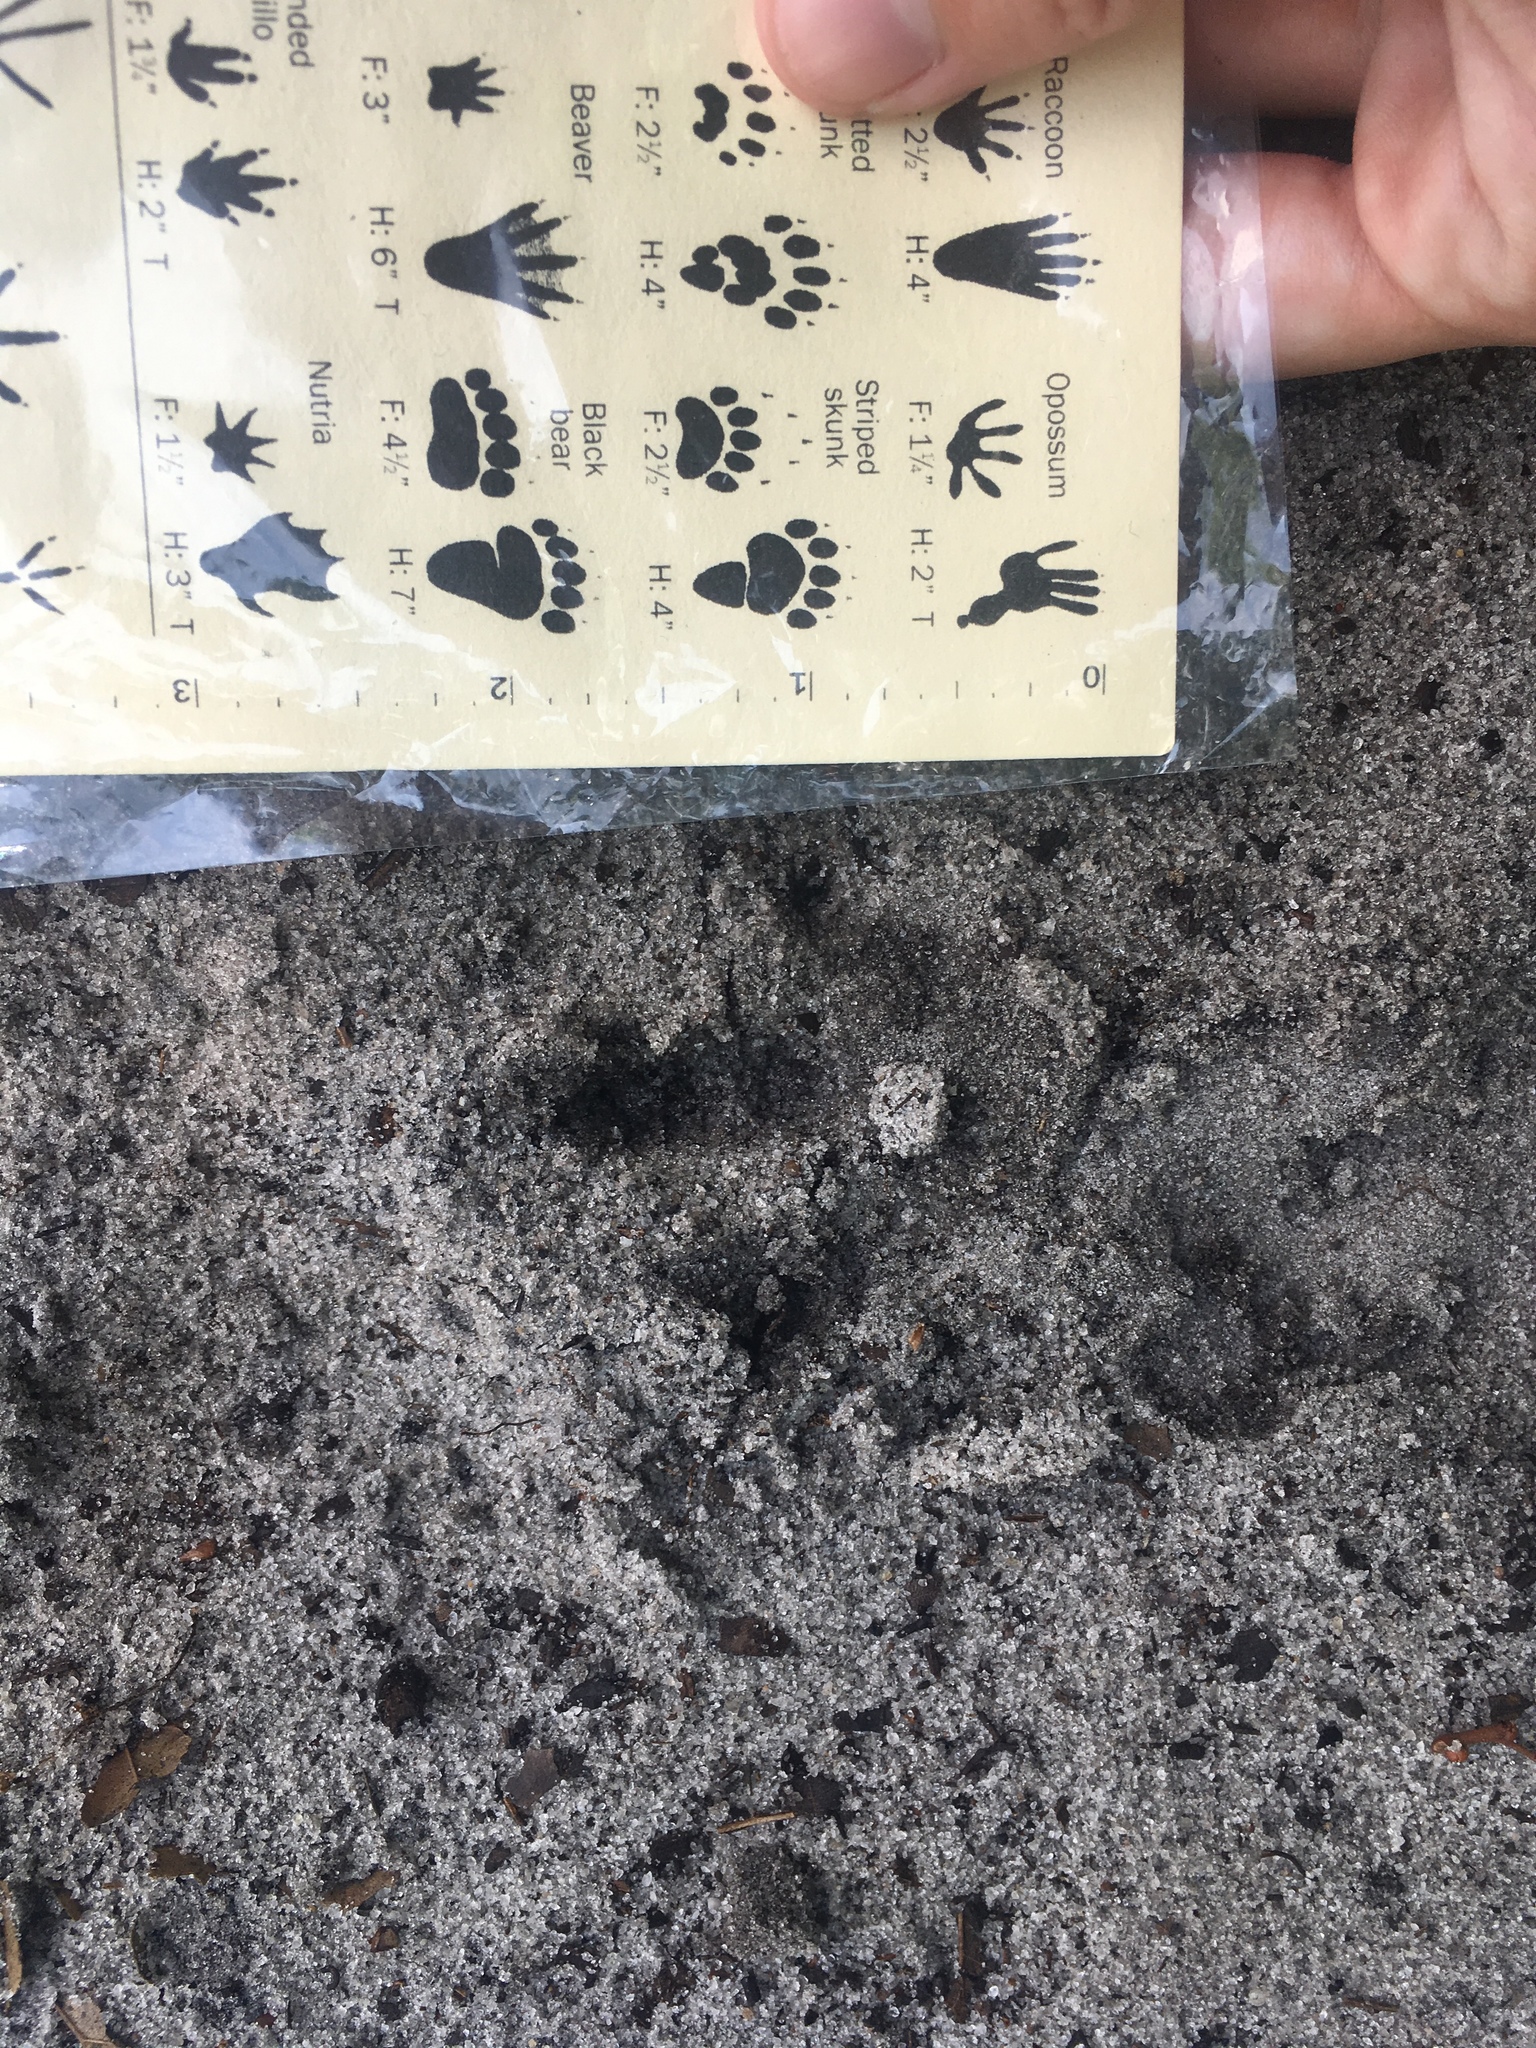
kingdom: Animalia
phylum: Chordata
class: Mammalia
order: Cingulata
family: Dasypodidae
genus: Dasypus
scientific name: Dasypus novemcinctus
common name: Nine-banded armadillo
